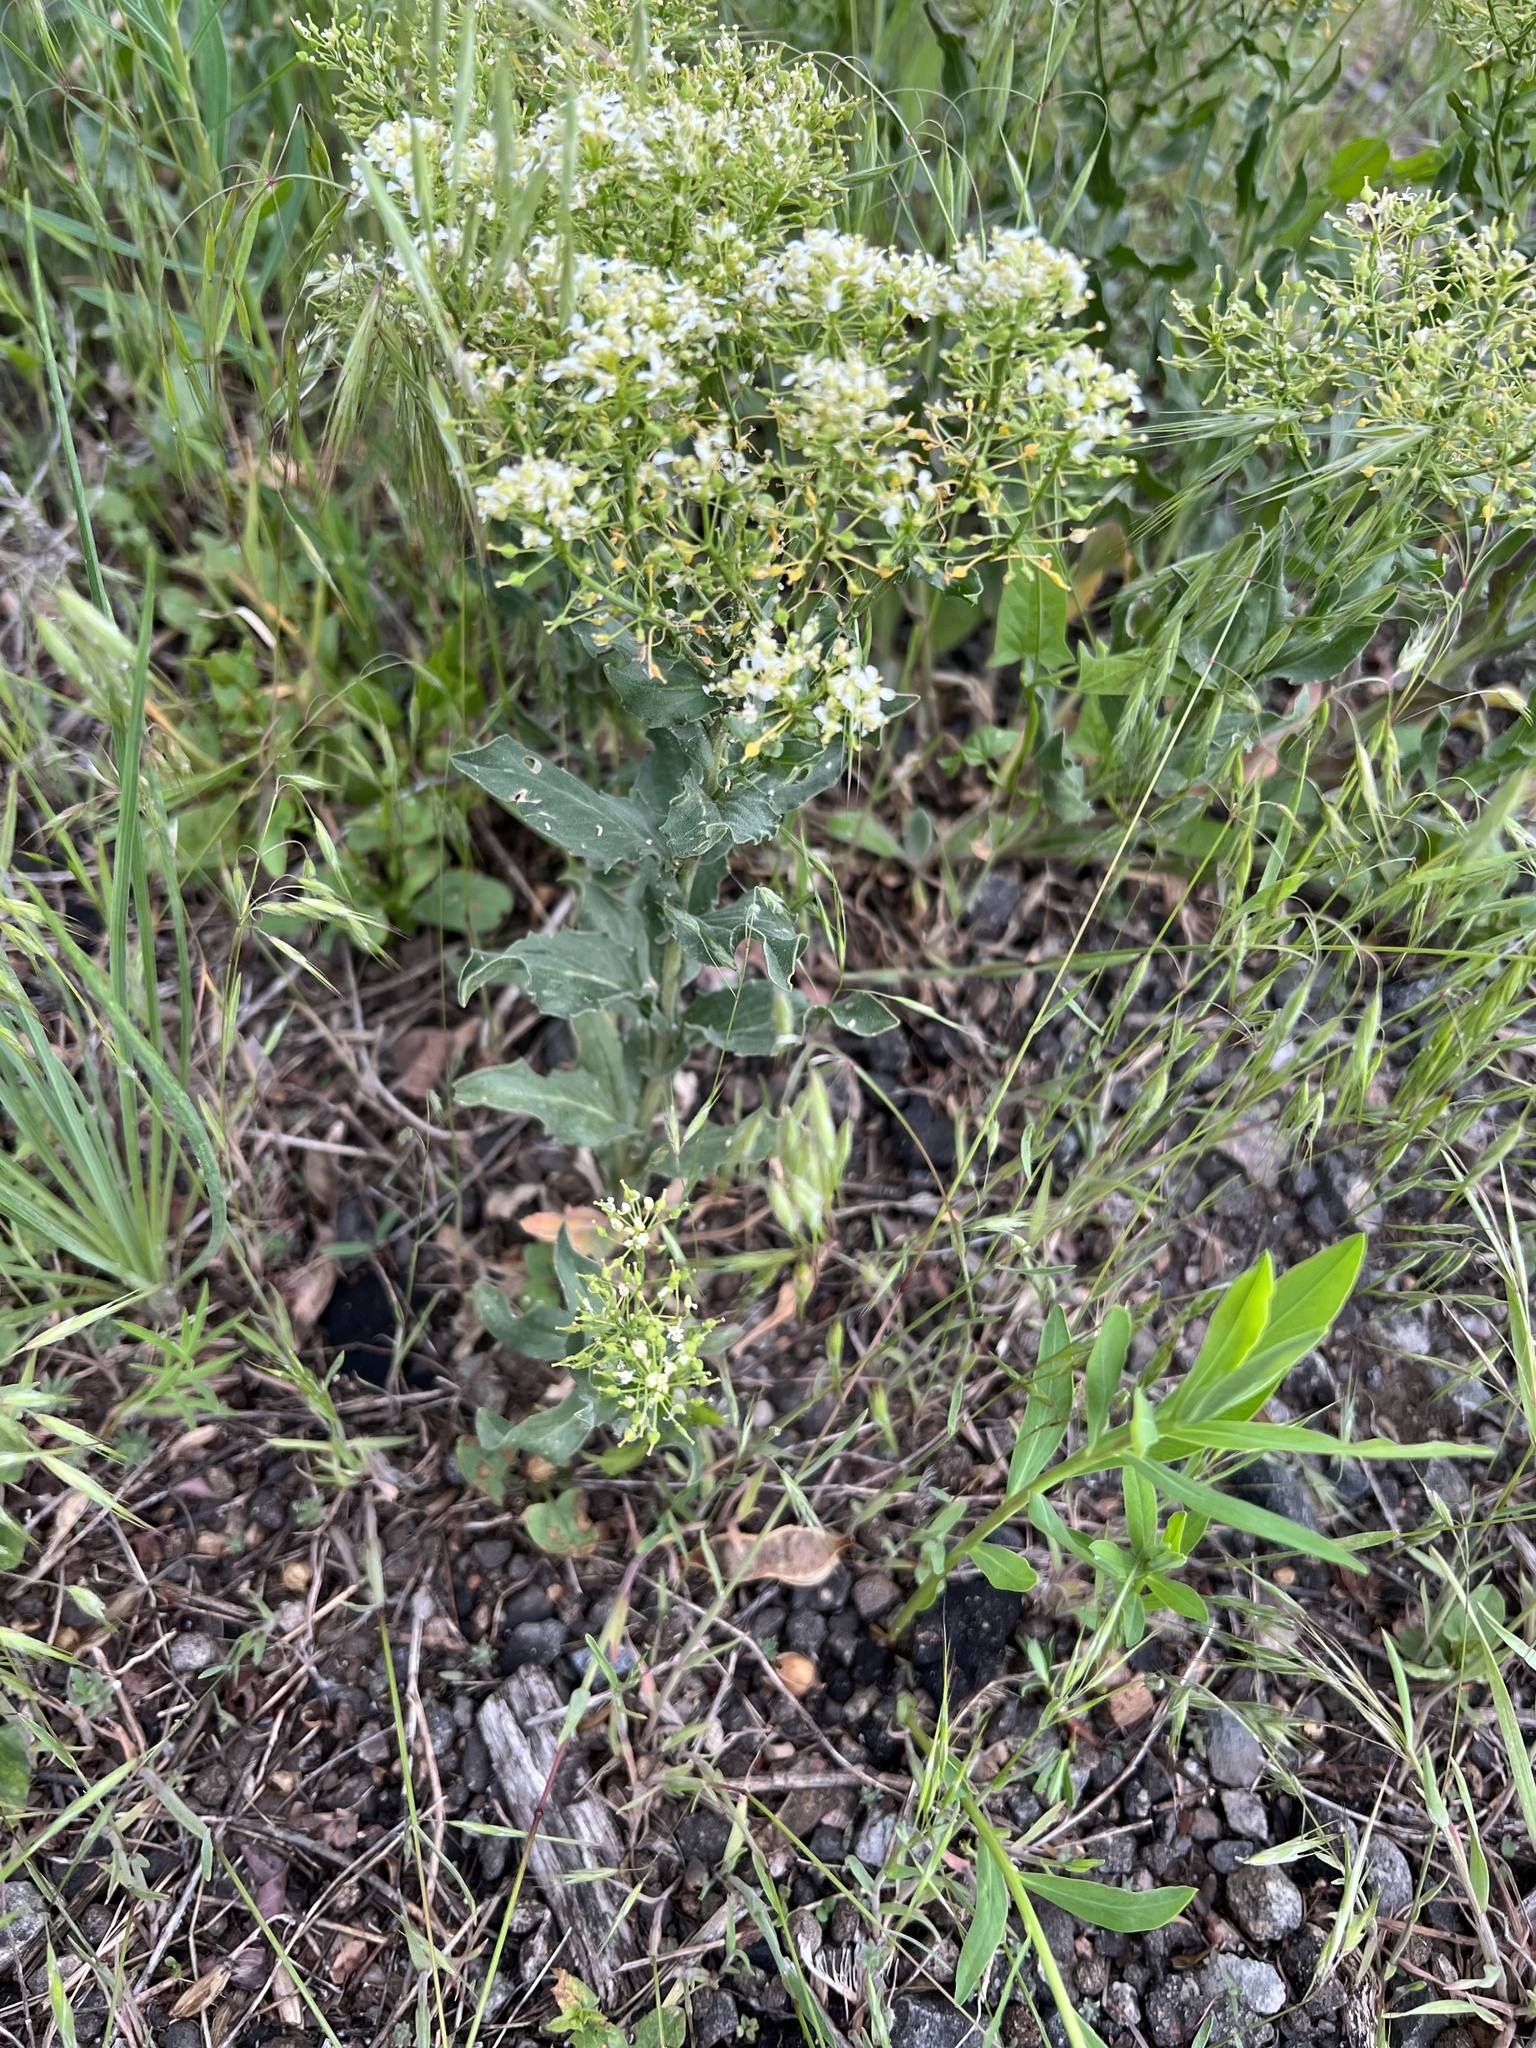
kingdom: Plantae
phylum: Tracheophyta
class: Magnoliopsida
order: Brassicales
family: Brassicaceae
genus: Lepidium
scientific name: Lepidium draba
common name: Hoary cress
